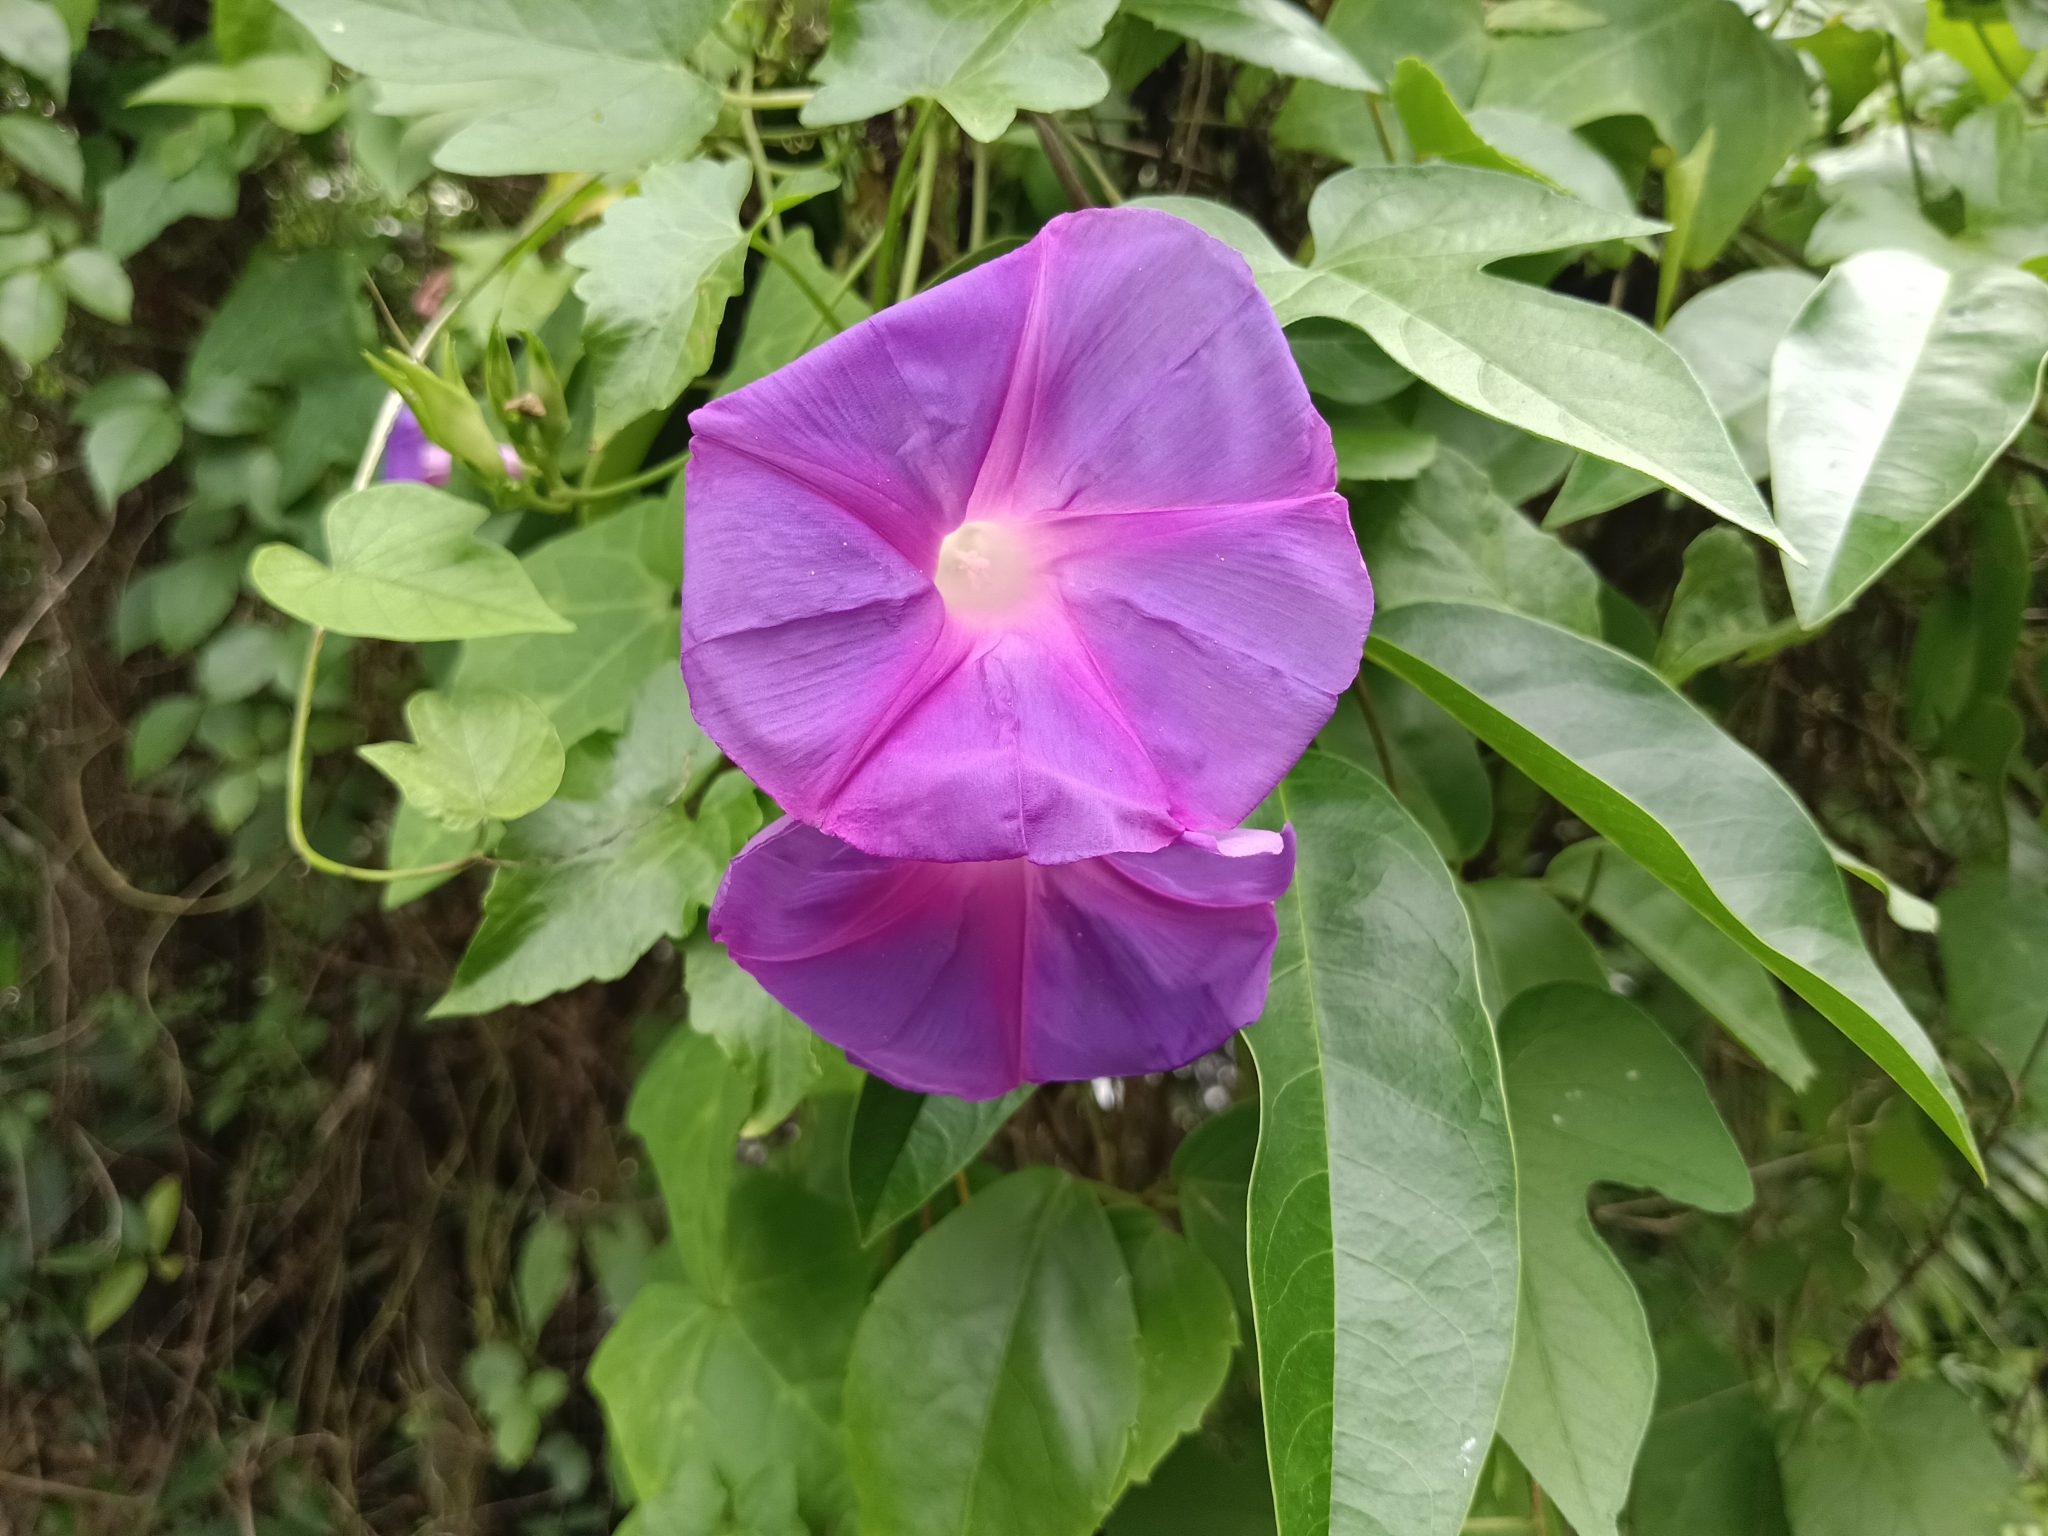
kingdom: Plantae
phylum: Tracheophyta
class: Magnoliopsida
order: Solanales
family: Convolvulaceae
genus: Ipomoea
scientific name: Ipomoea indica
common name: Blue dawnflower
